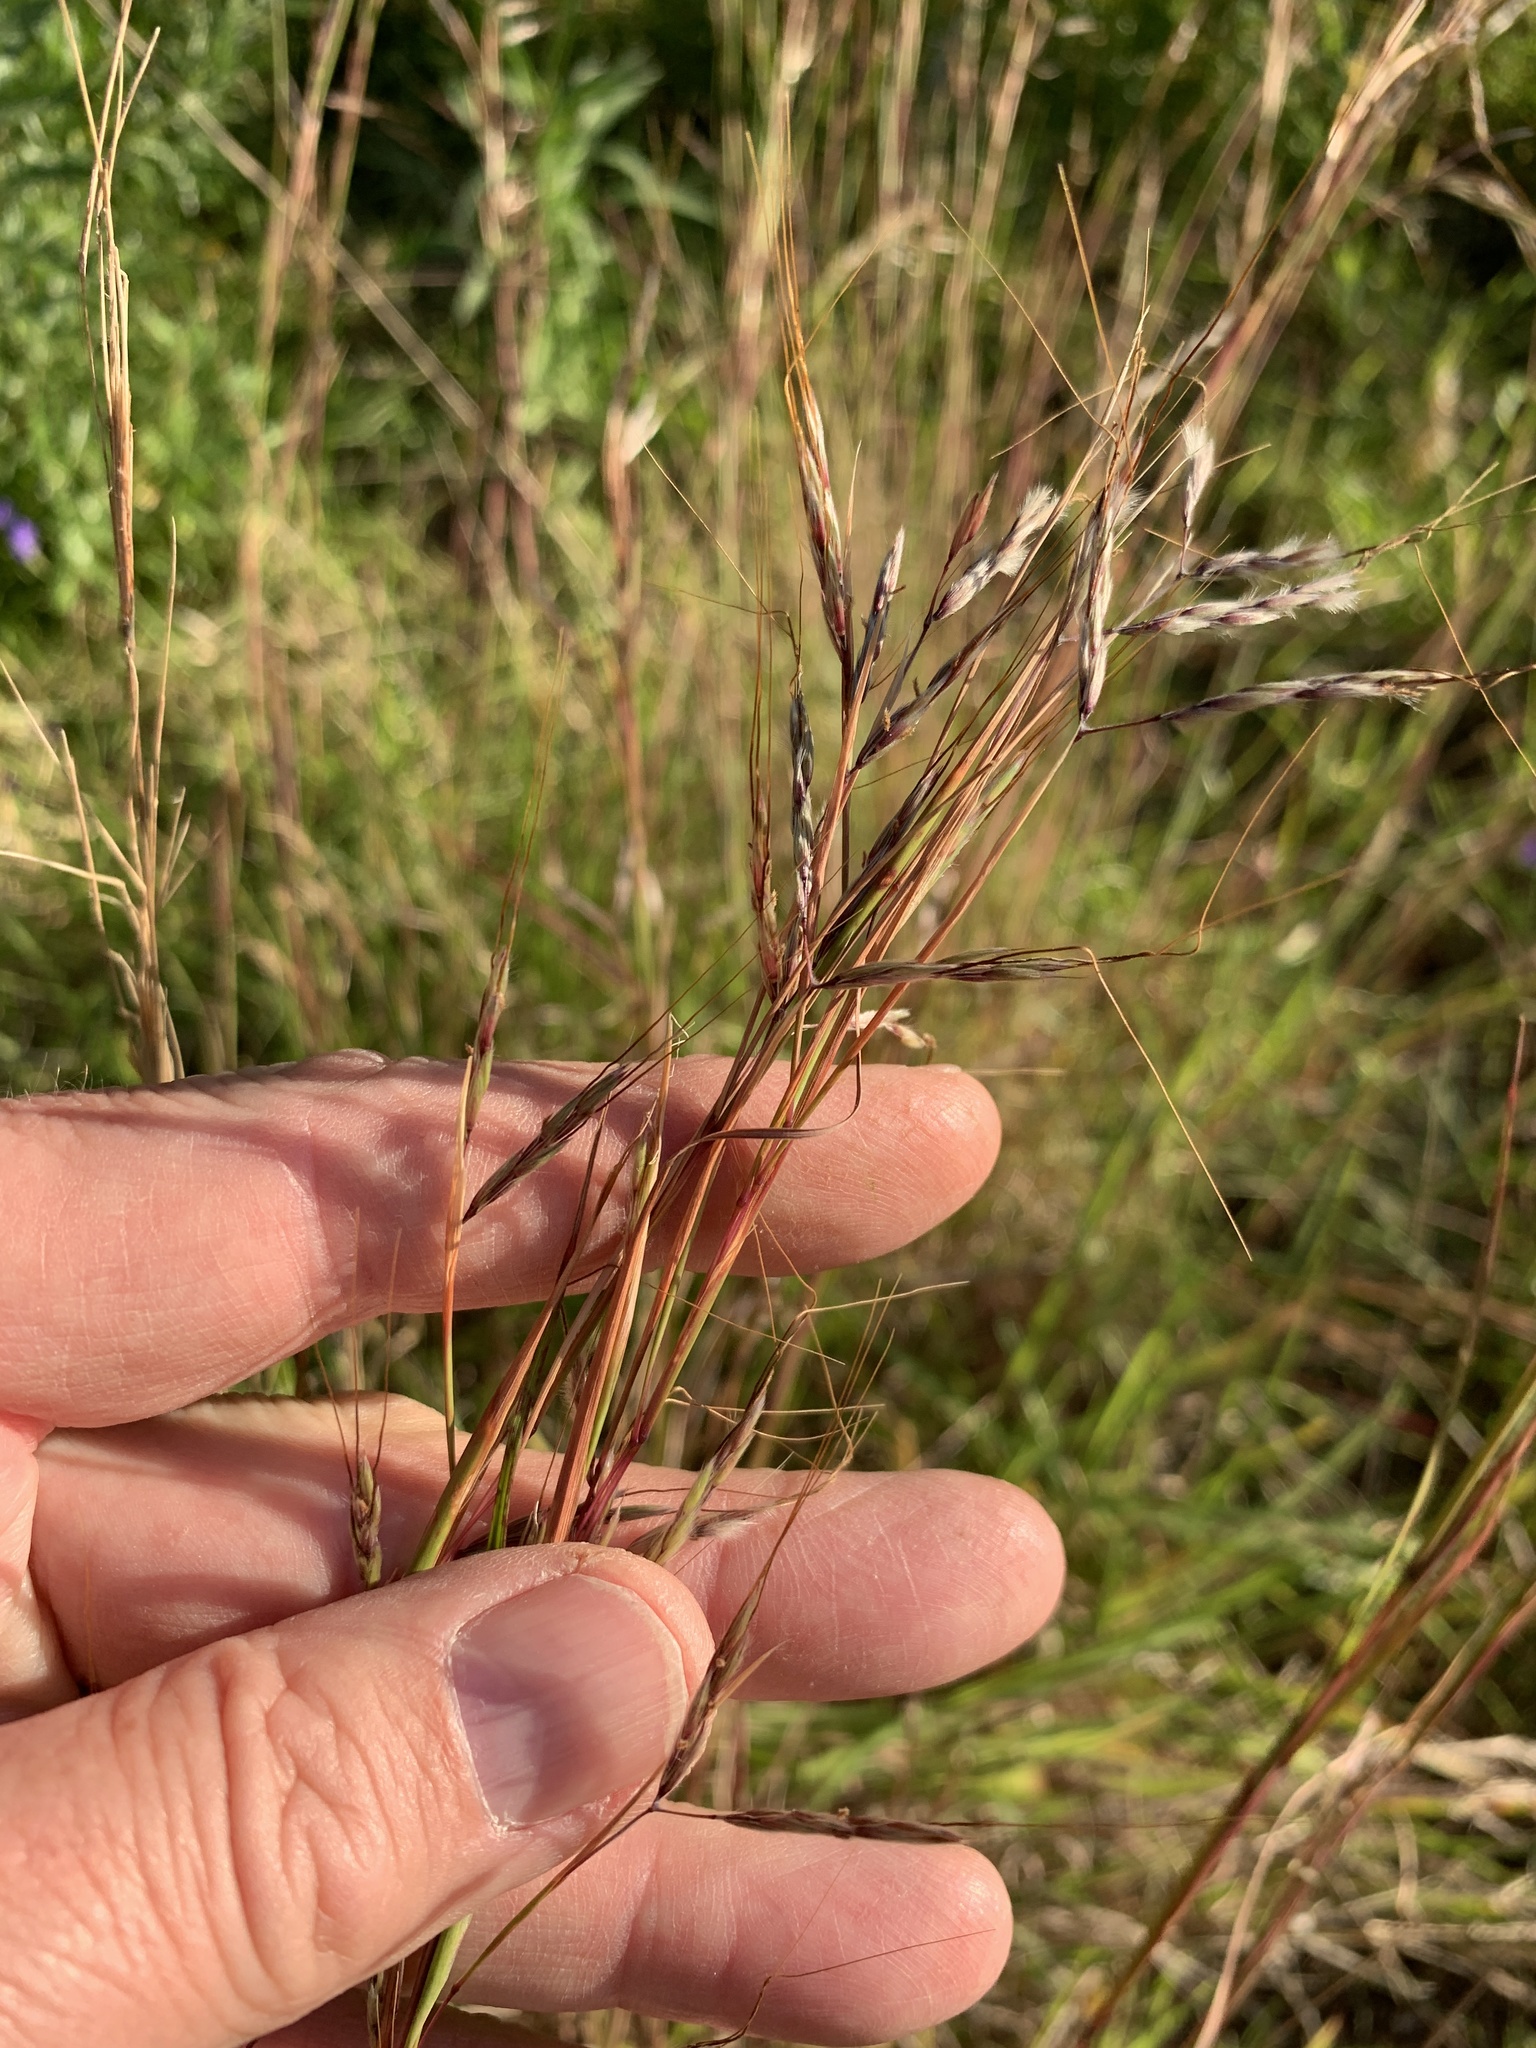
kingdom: Plantae
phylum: Tracheophyta
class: Liliopsida
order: Poales
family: Poaceae
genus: Hyparrhenia
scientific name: Hyparrhenia hirta
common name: Thatching grass
